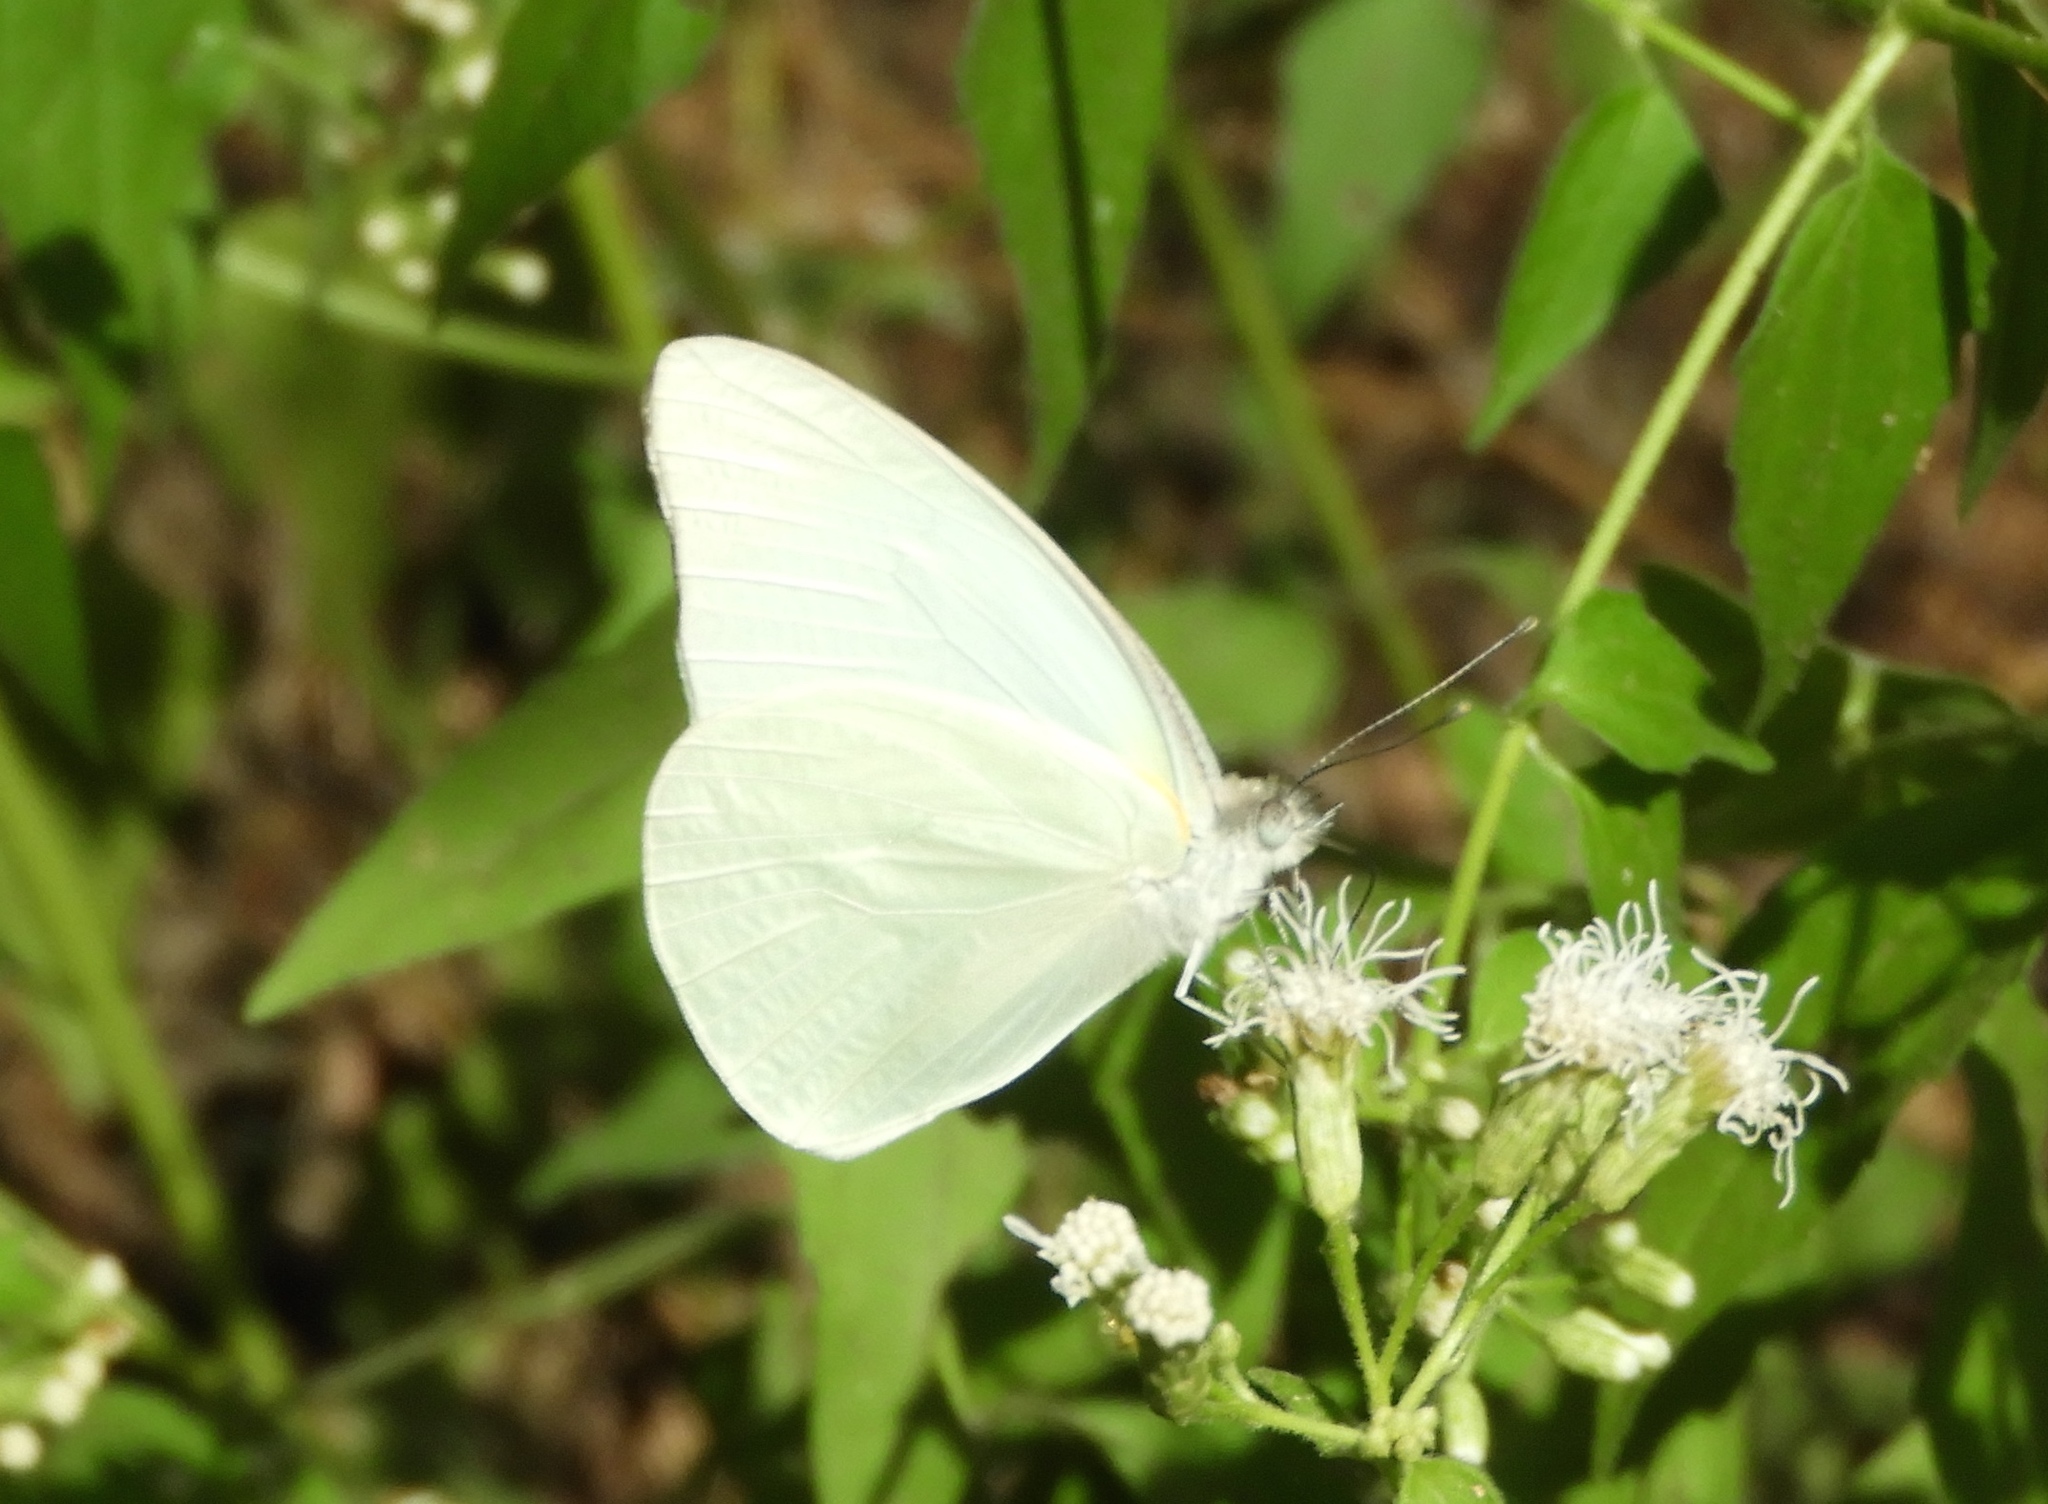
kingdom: Animalia
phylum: Arthropoda
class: Insecta
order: Lepidoptera
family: Pieridae
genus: Glutophrissa
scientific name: Glutophrissa drusilla
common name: Florida white
